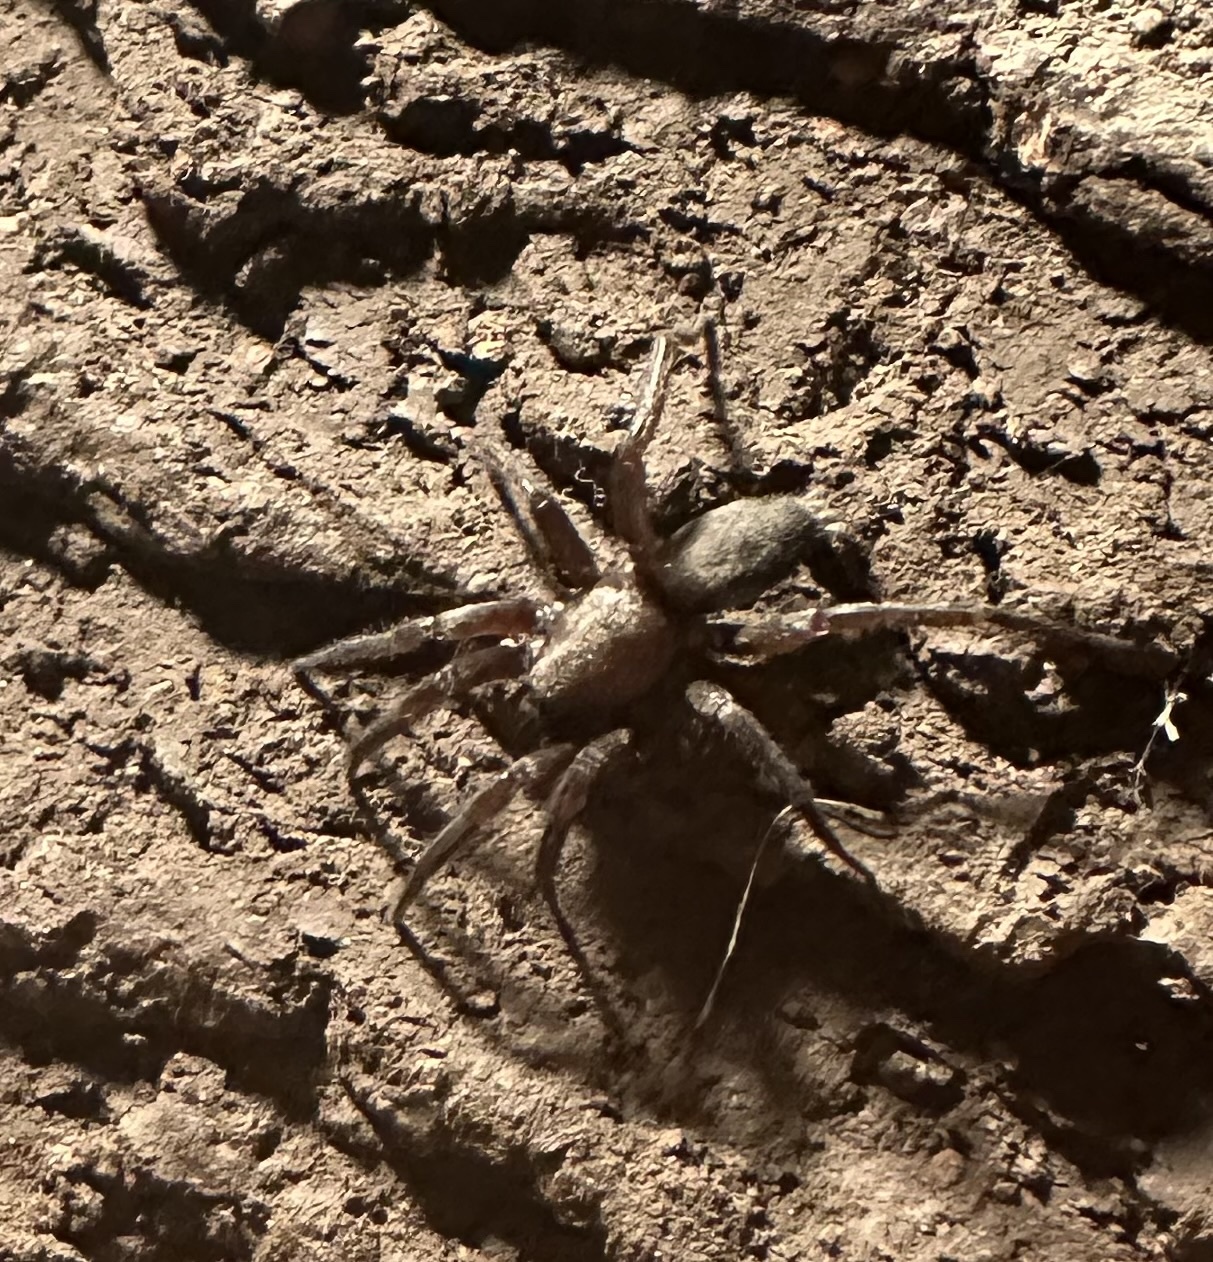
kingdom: Animalia
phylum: Arthropoda
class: Arachnida
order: Araneae
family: Gnaphosidae
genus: Scotophaeus
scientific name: Scotophaeus blackwalli
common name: Mouse spider
